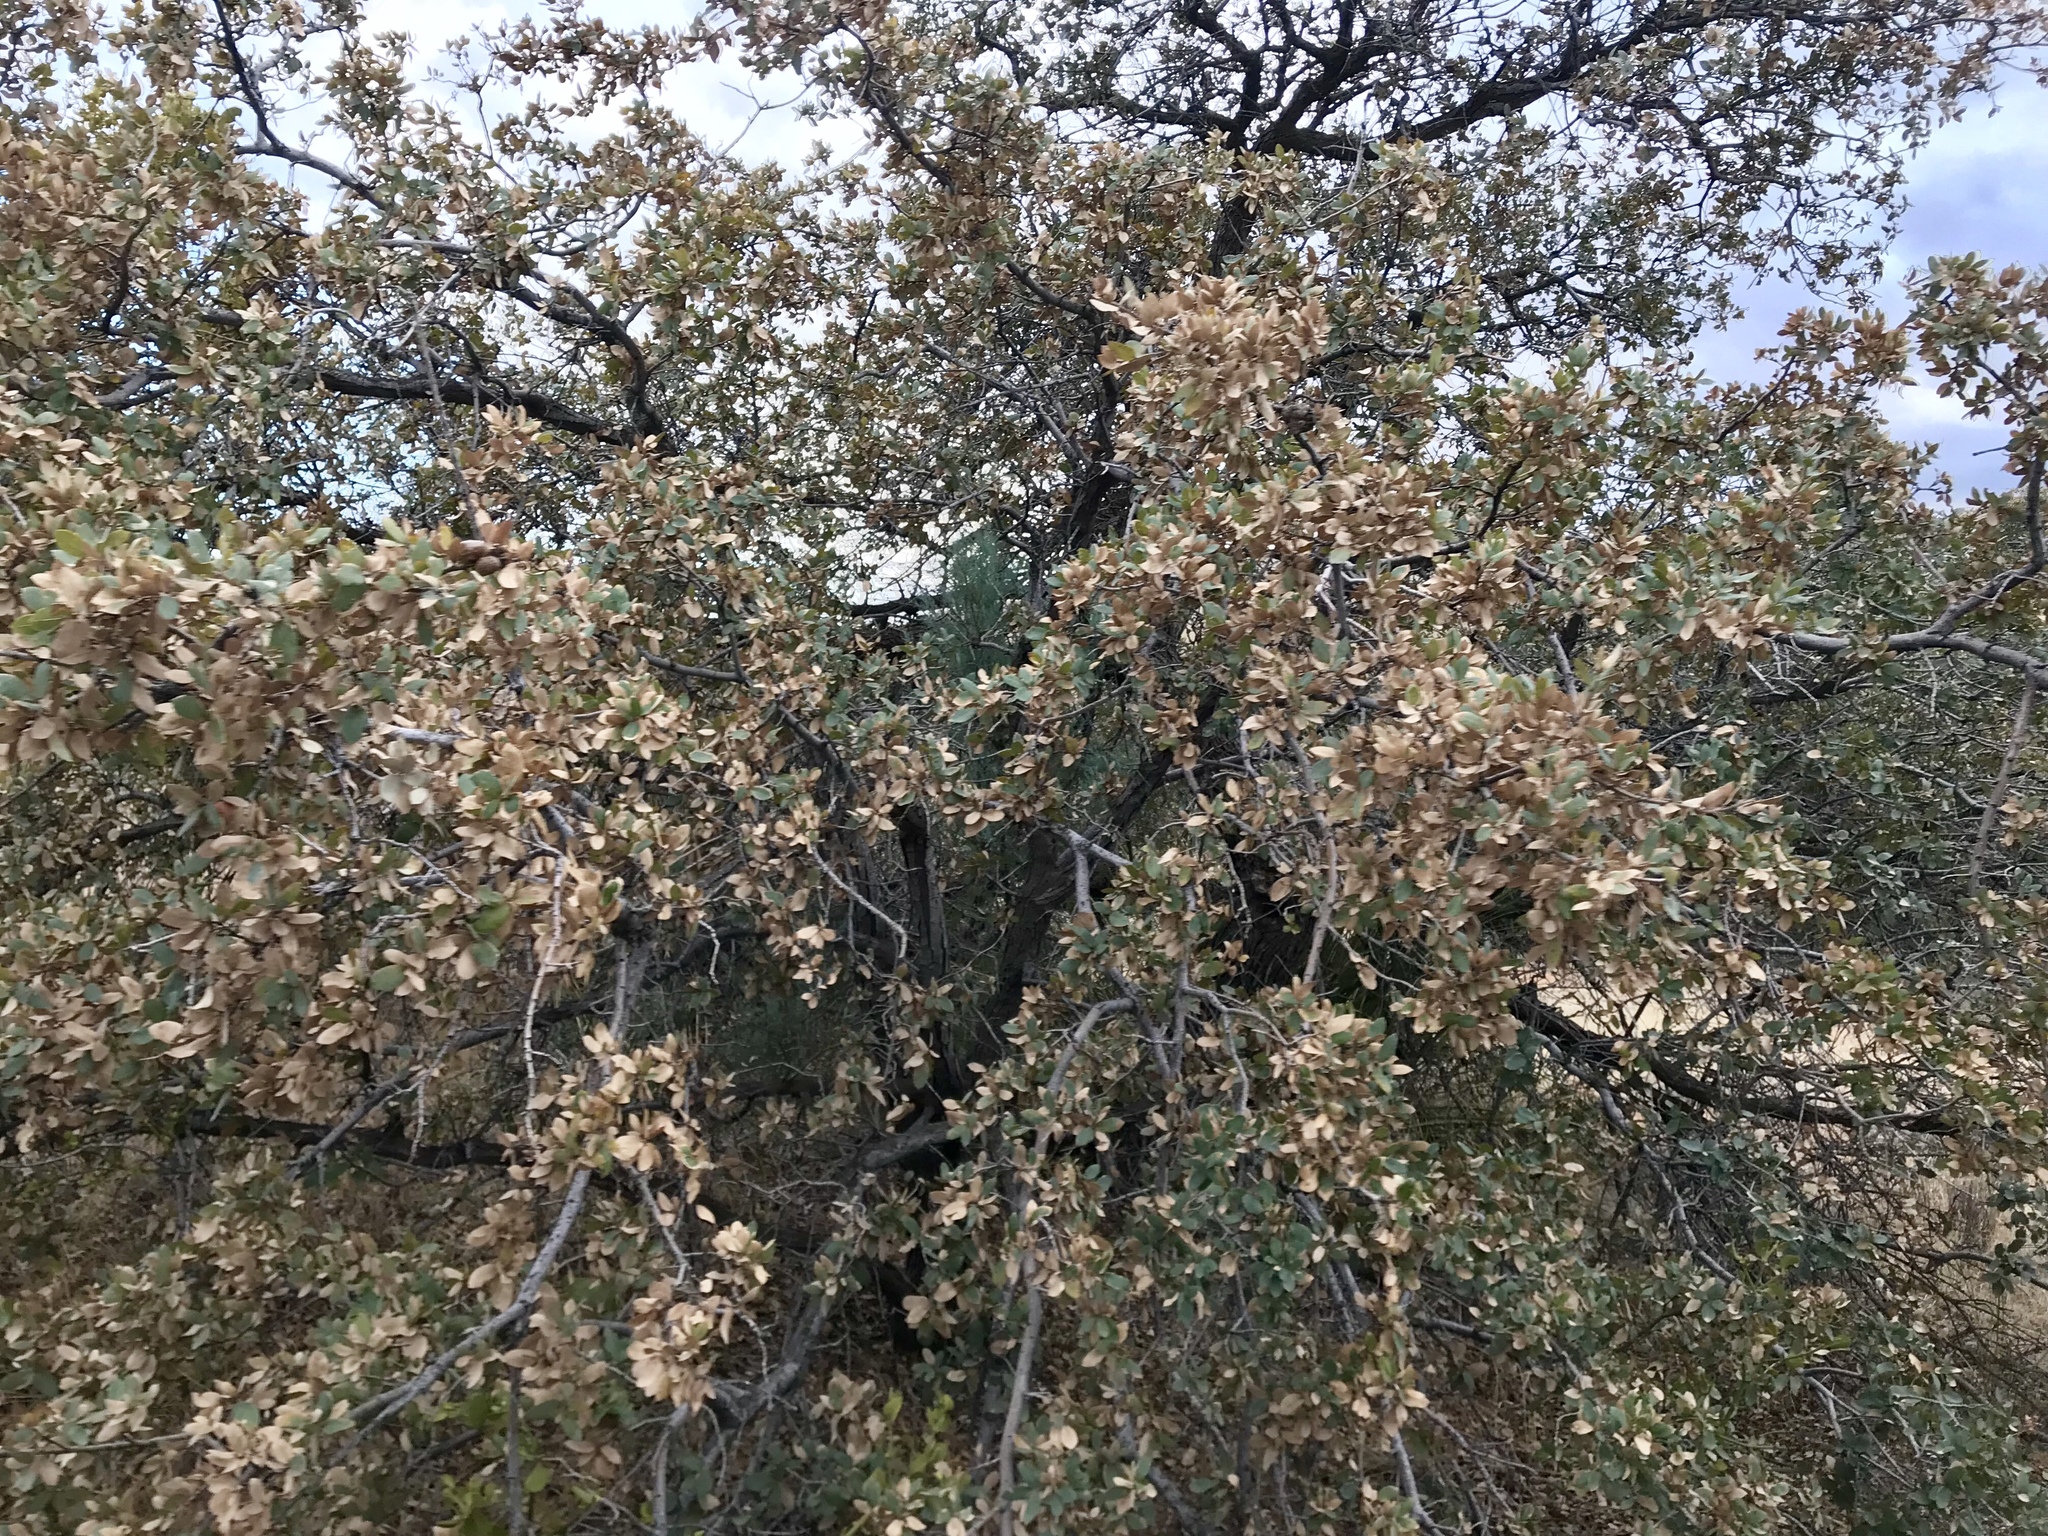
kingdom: Plantae
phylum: Tracheophyta
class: Magnoliopsida
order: Fagales
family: Fagaceae
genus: Quercus
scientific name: Quercus grisea
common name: Gray oak
